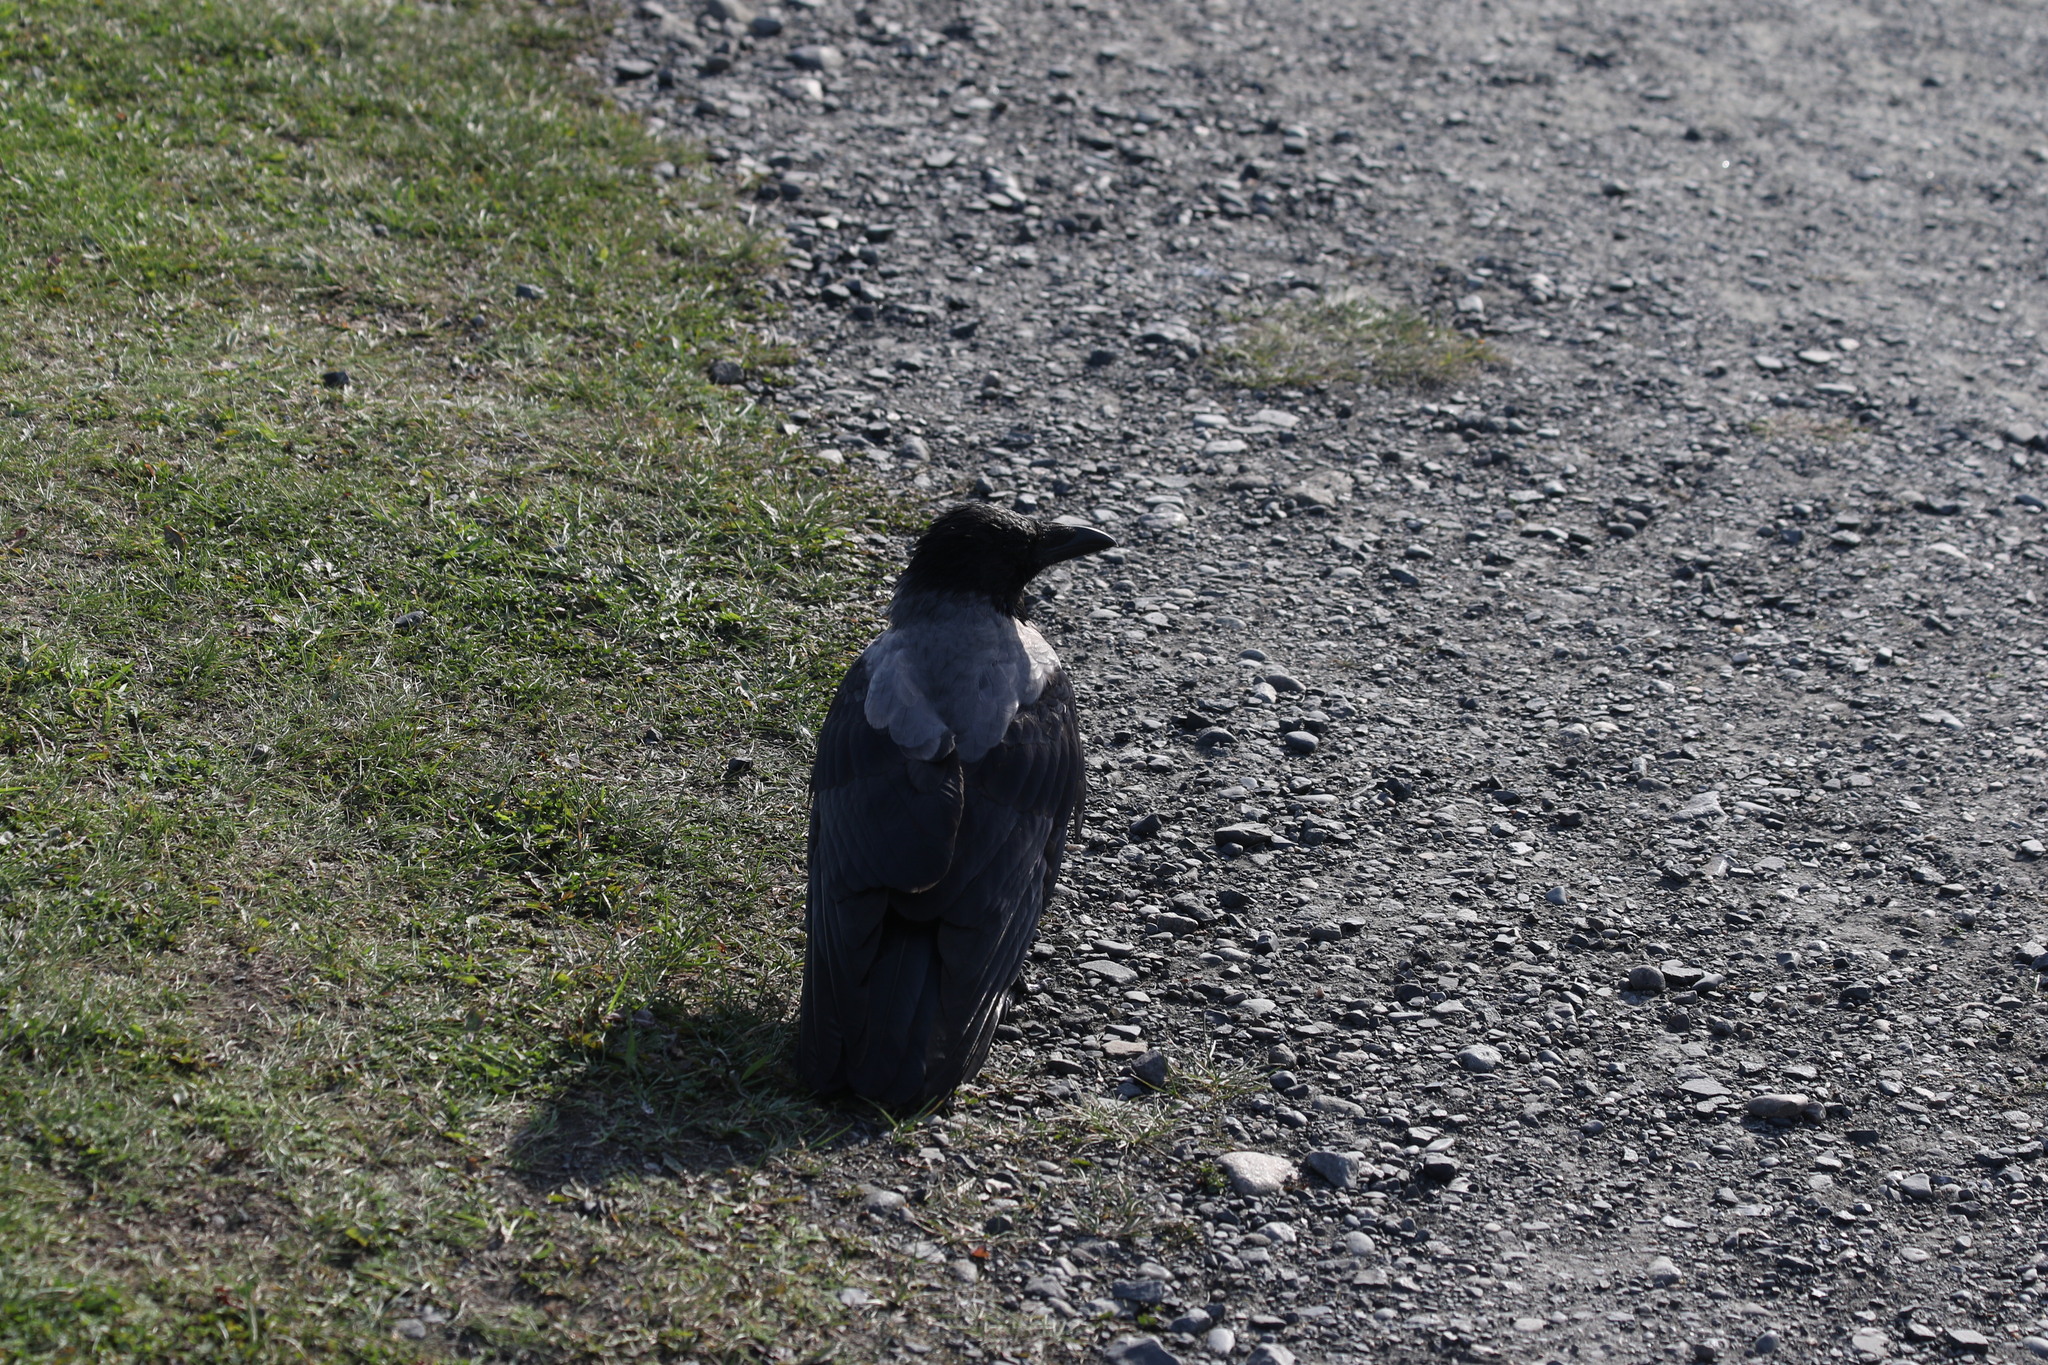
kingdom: Animalia
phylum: Chordata
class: Aves
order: Passeriformes
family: Corvidae
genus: Corvus
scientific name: Corvus cornix
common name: Hooded crow
